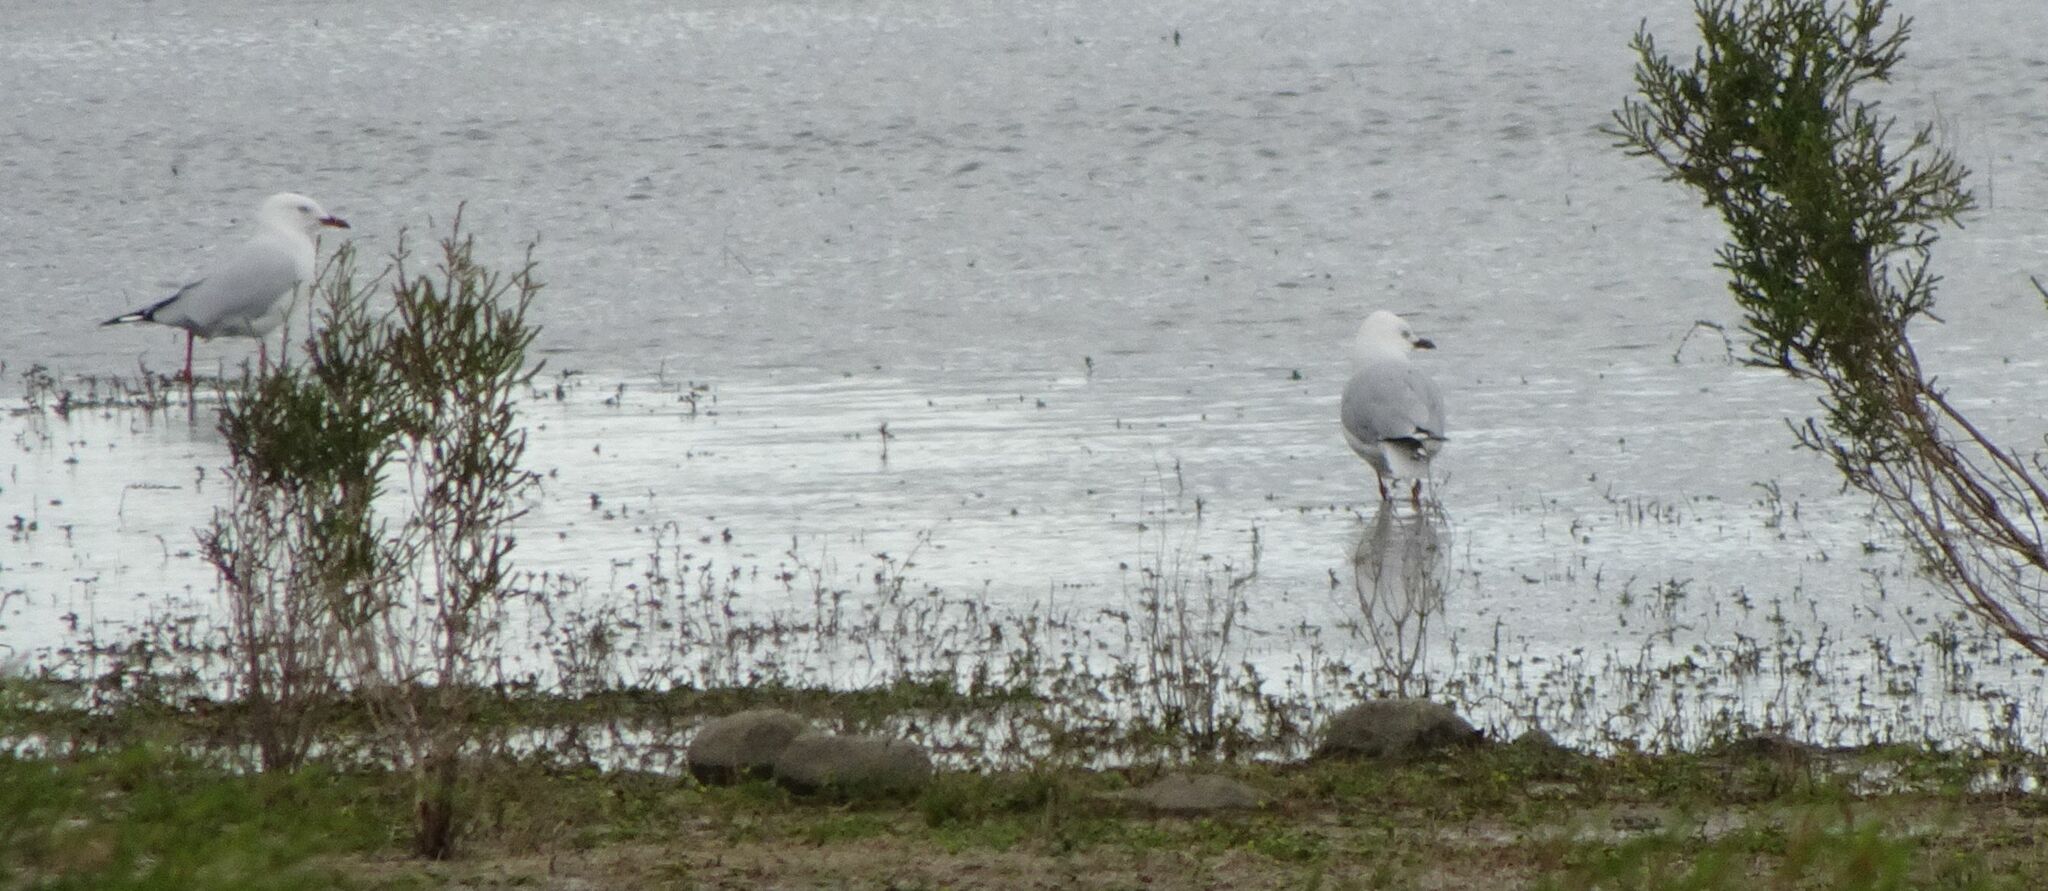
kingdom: Animalia
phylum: Chordata
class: Aves
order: Charadriiformes
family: Laridae
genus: Chroicocephalus
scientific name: Chroicocephalus novaehollandiae
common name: Silver gull
